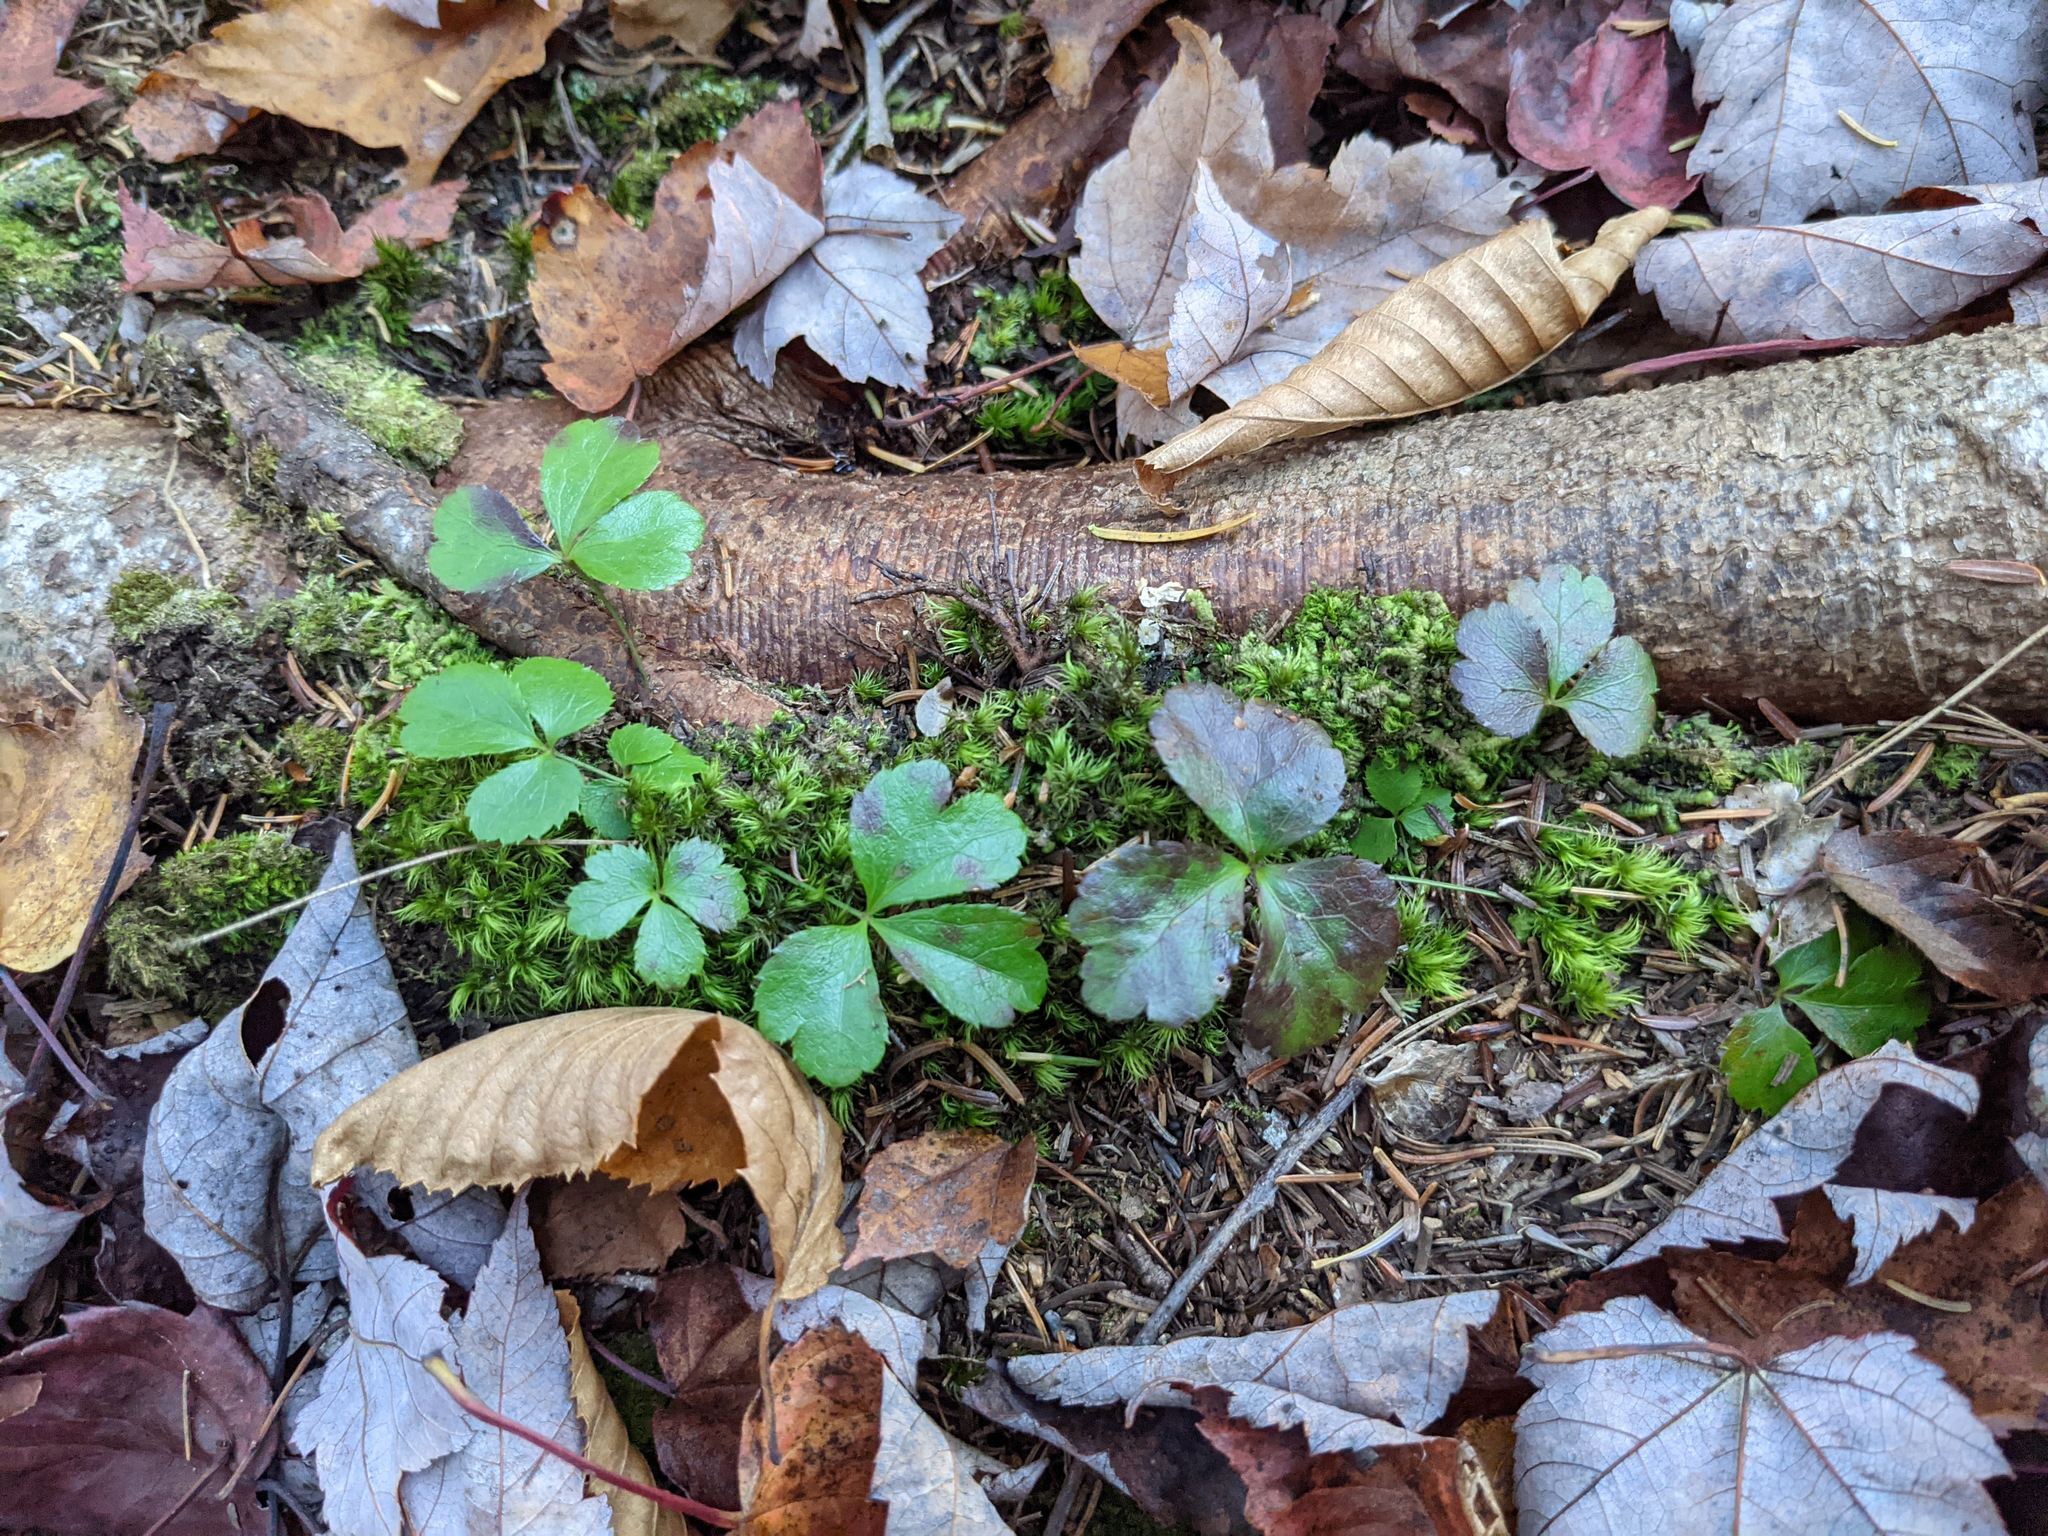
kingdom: Plantae
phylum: Tracheophyta
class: Magnoliopsida
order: Ranunculales
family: Ranunculaceae
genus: Coptis
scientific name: Coptis trifolia
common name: Canker-root
